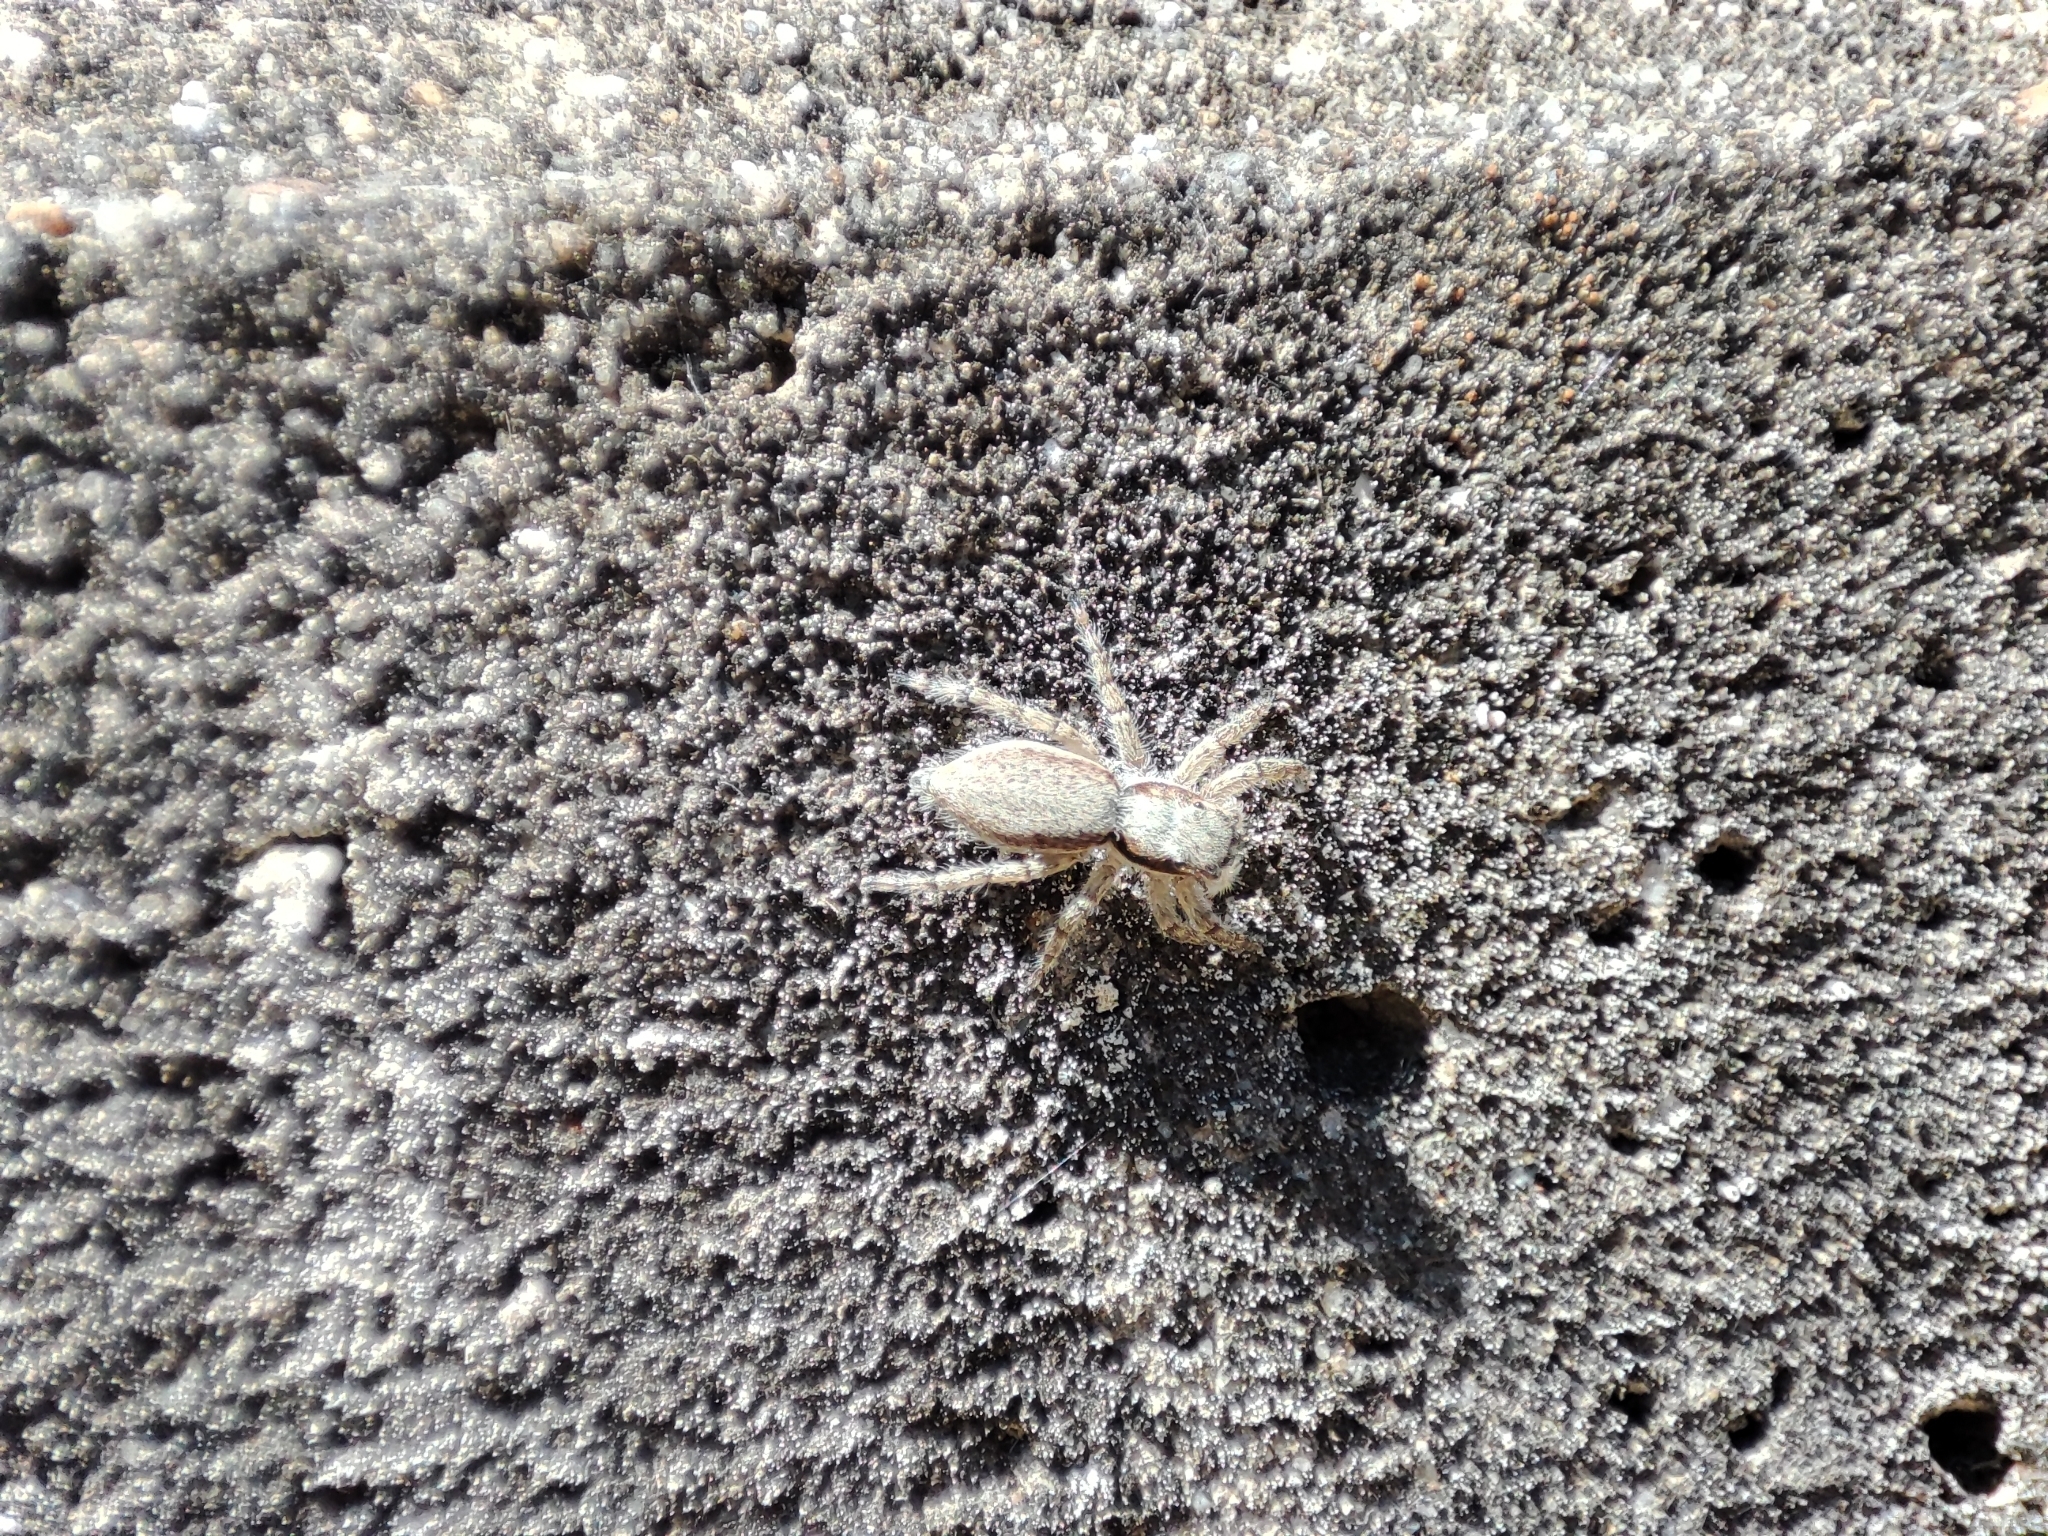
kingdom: Animalia
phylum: Arthropoda
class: Arachnida
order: Araneae
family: Salticidae
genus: Menemerus
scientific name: Menemerus taeniatus
